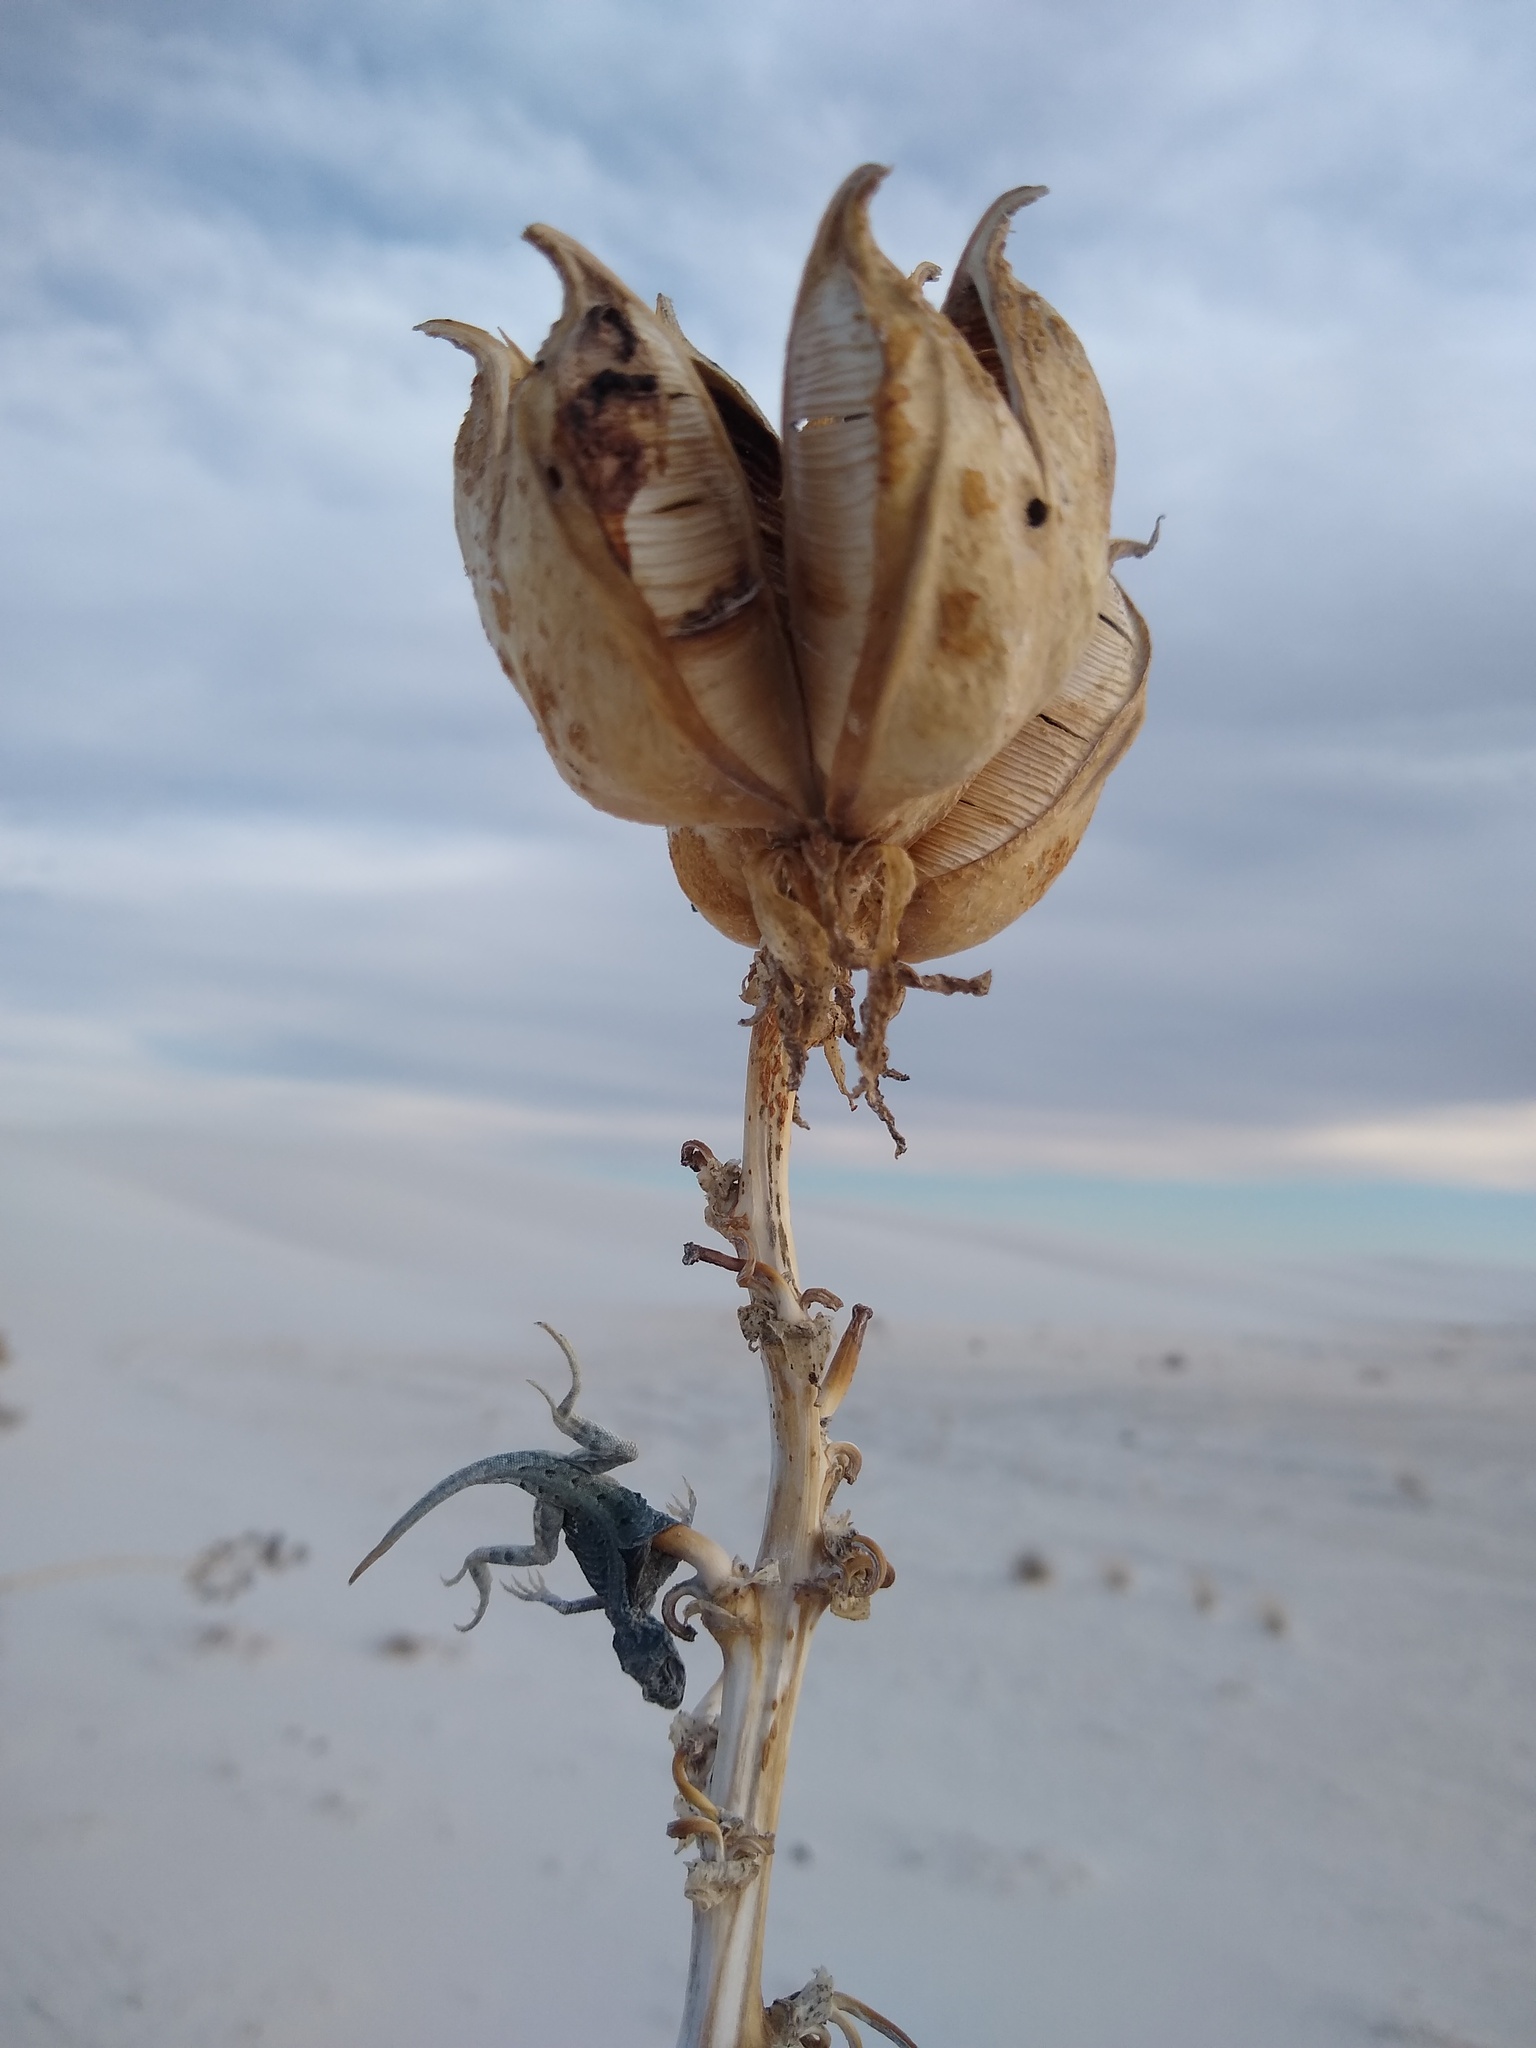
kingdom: Animalia
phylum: Chordata
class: Squamata
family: Phrynosomatidae
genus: Holbrookia
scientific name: Holbrookia maculata
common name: Lesser earless lizard
